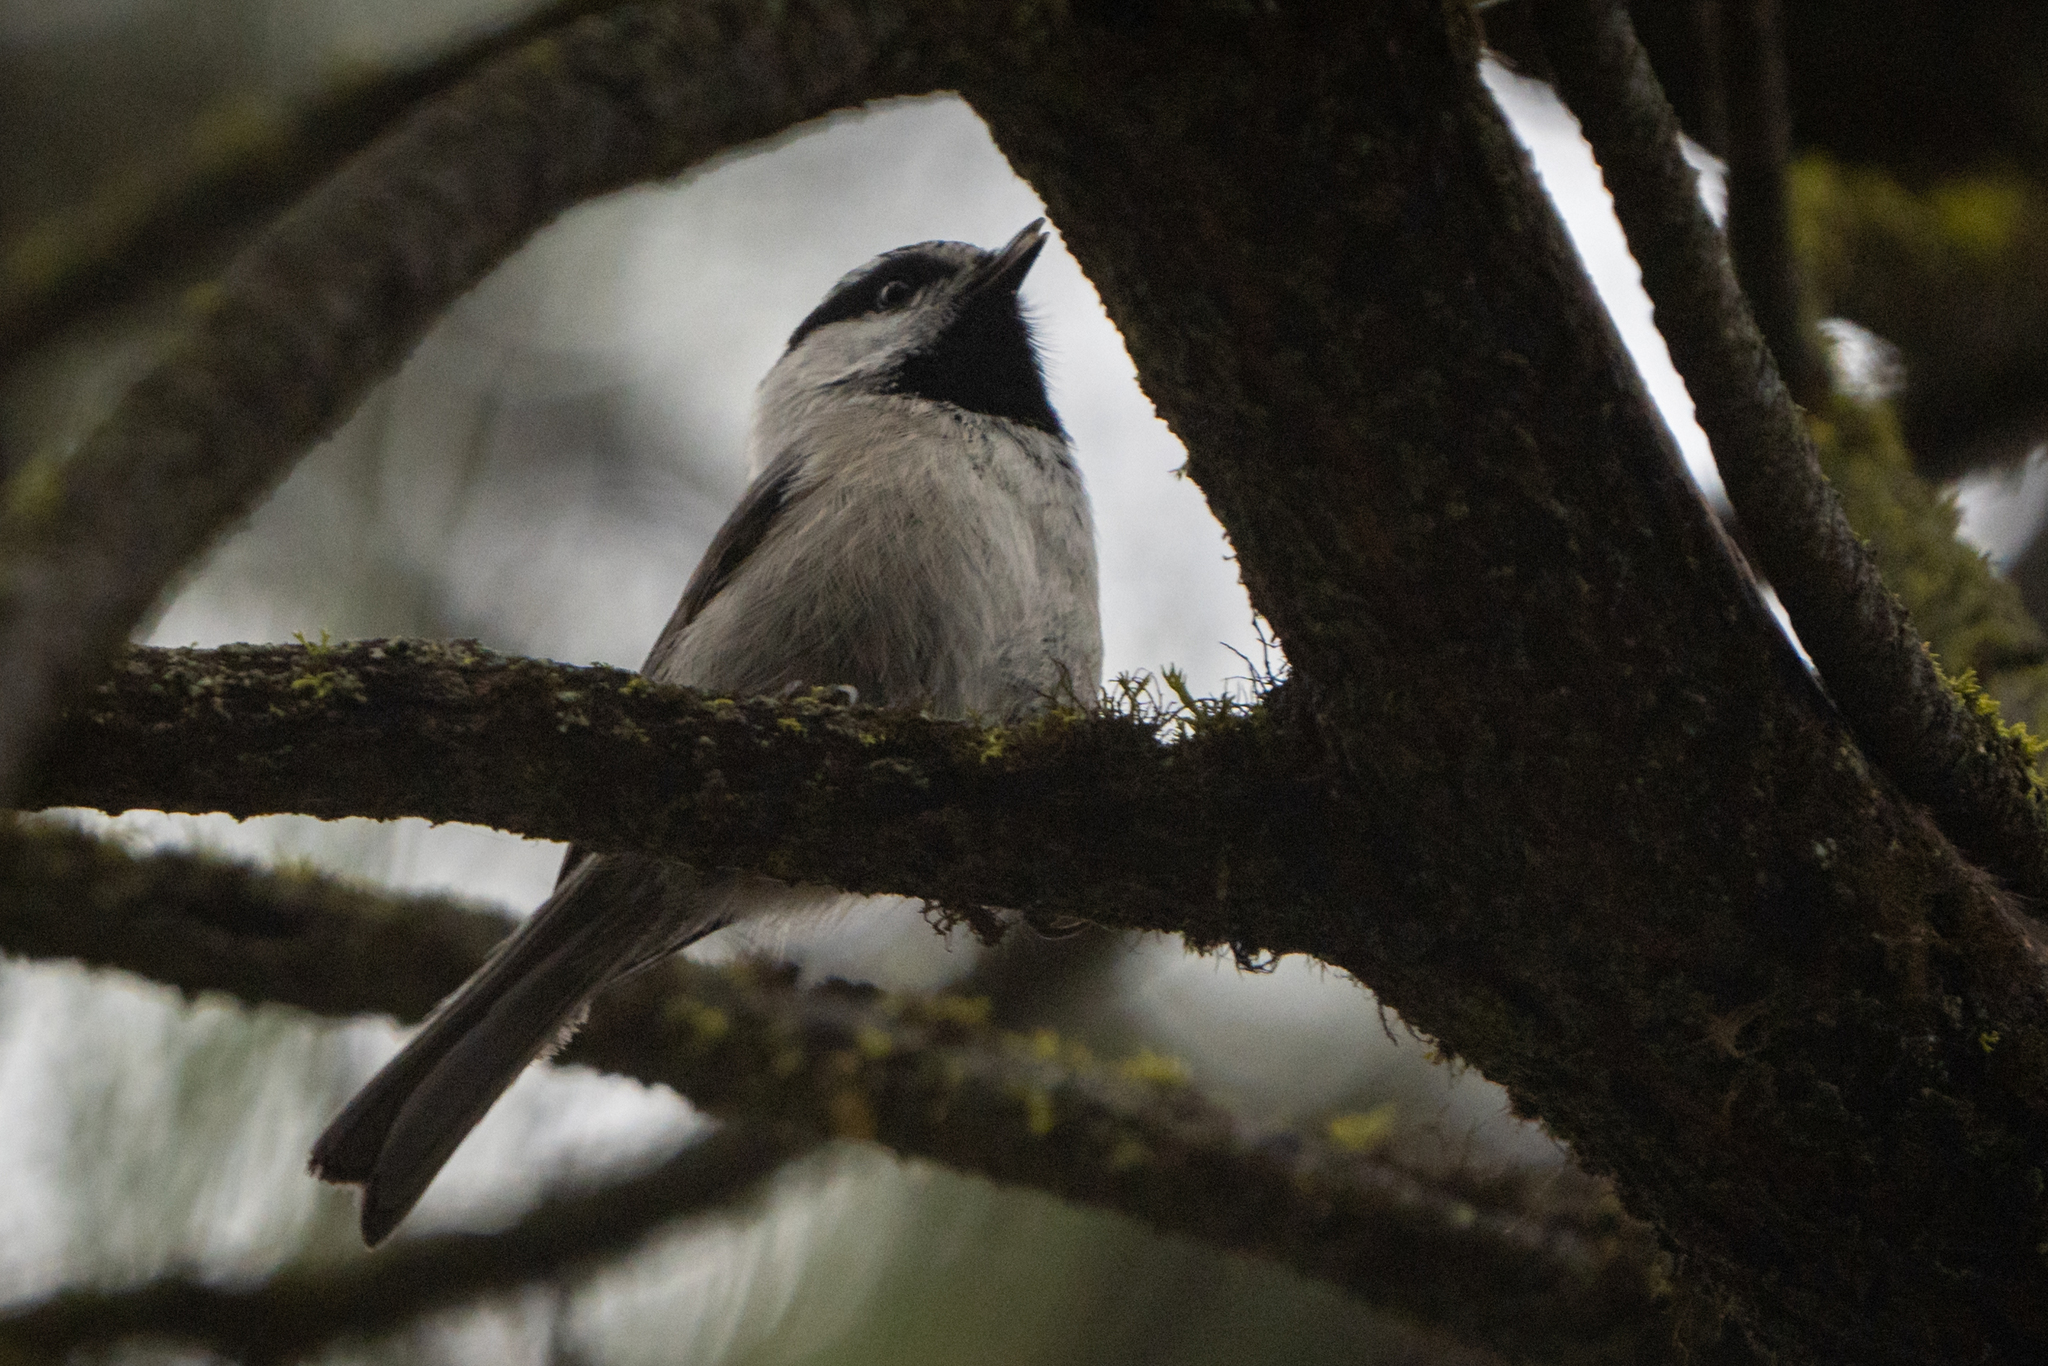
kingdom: Animalia
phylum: Chordata
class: Aves
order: Passeriformes
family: Paridae
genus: Poecile
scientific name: Poecile gambeli
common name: Mountain chickadee
